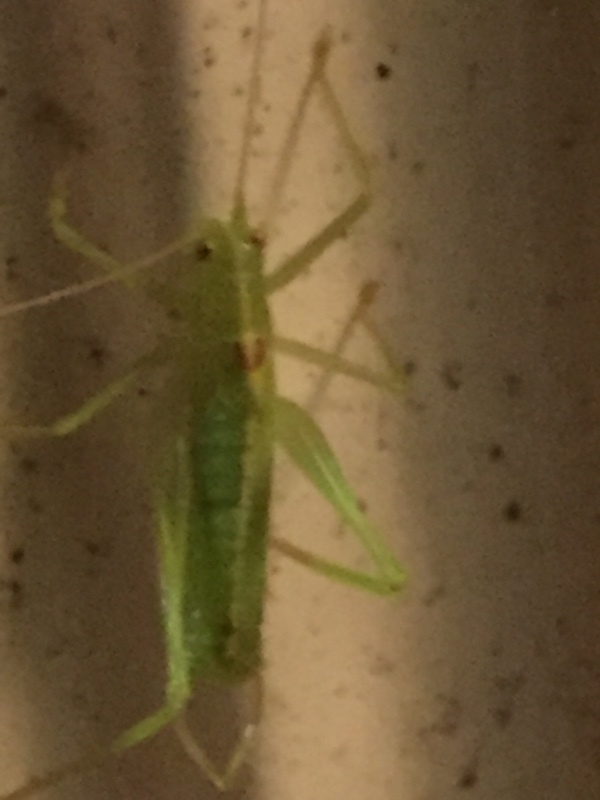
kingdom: Animalia
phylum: Arthropoda
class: Insecta
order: Orthoptera
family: Tettigoniidae
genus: Meconema
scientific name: Meconema meridionale
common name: Southern oak bush-cricket
